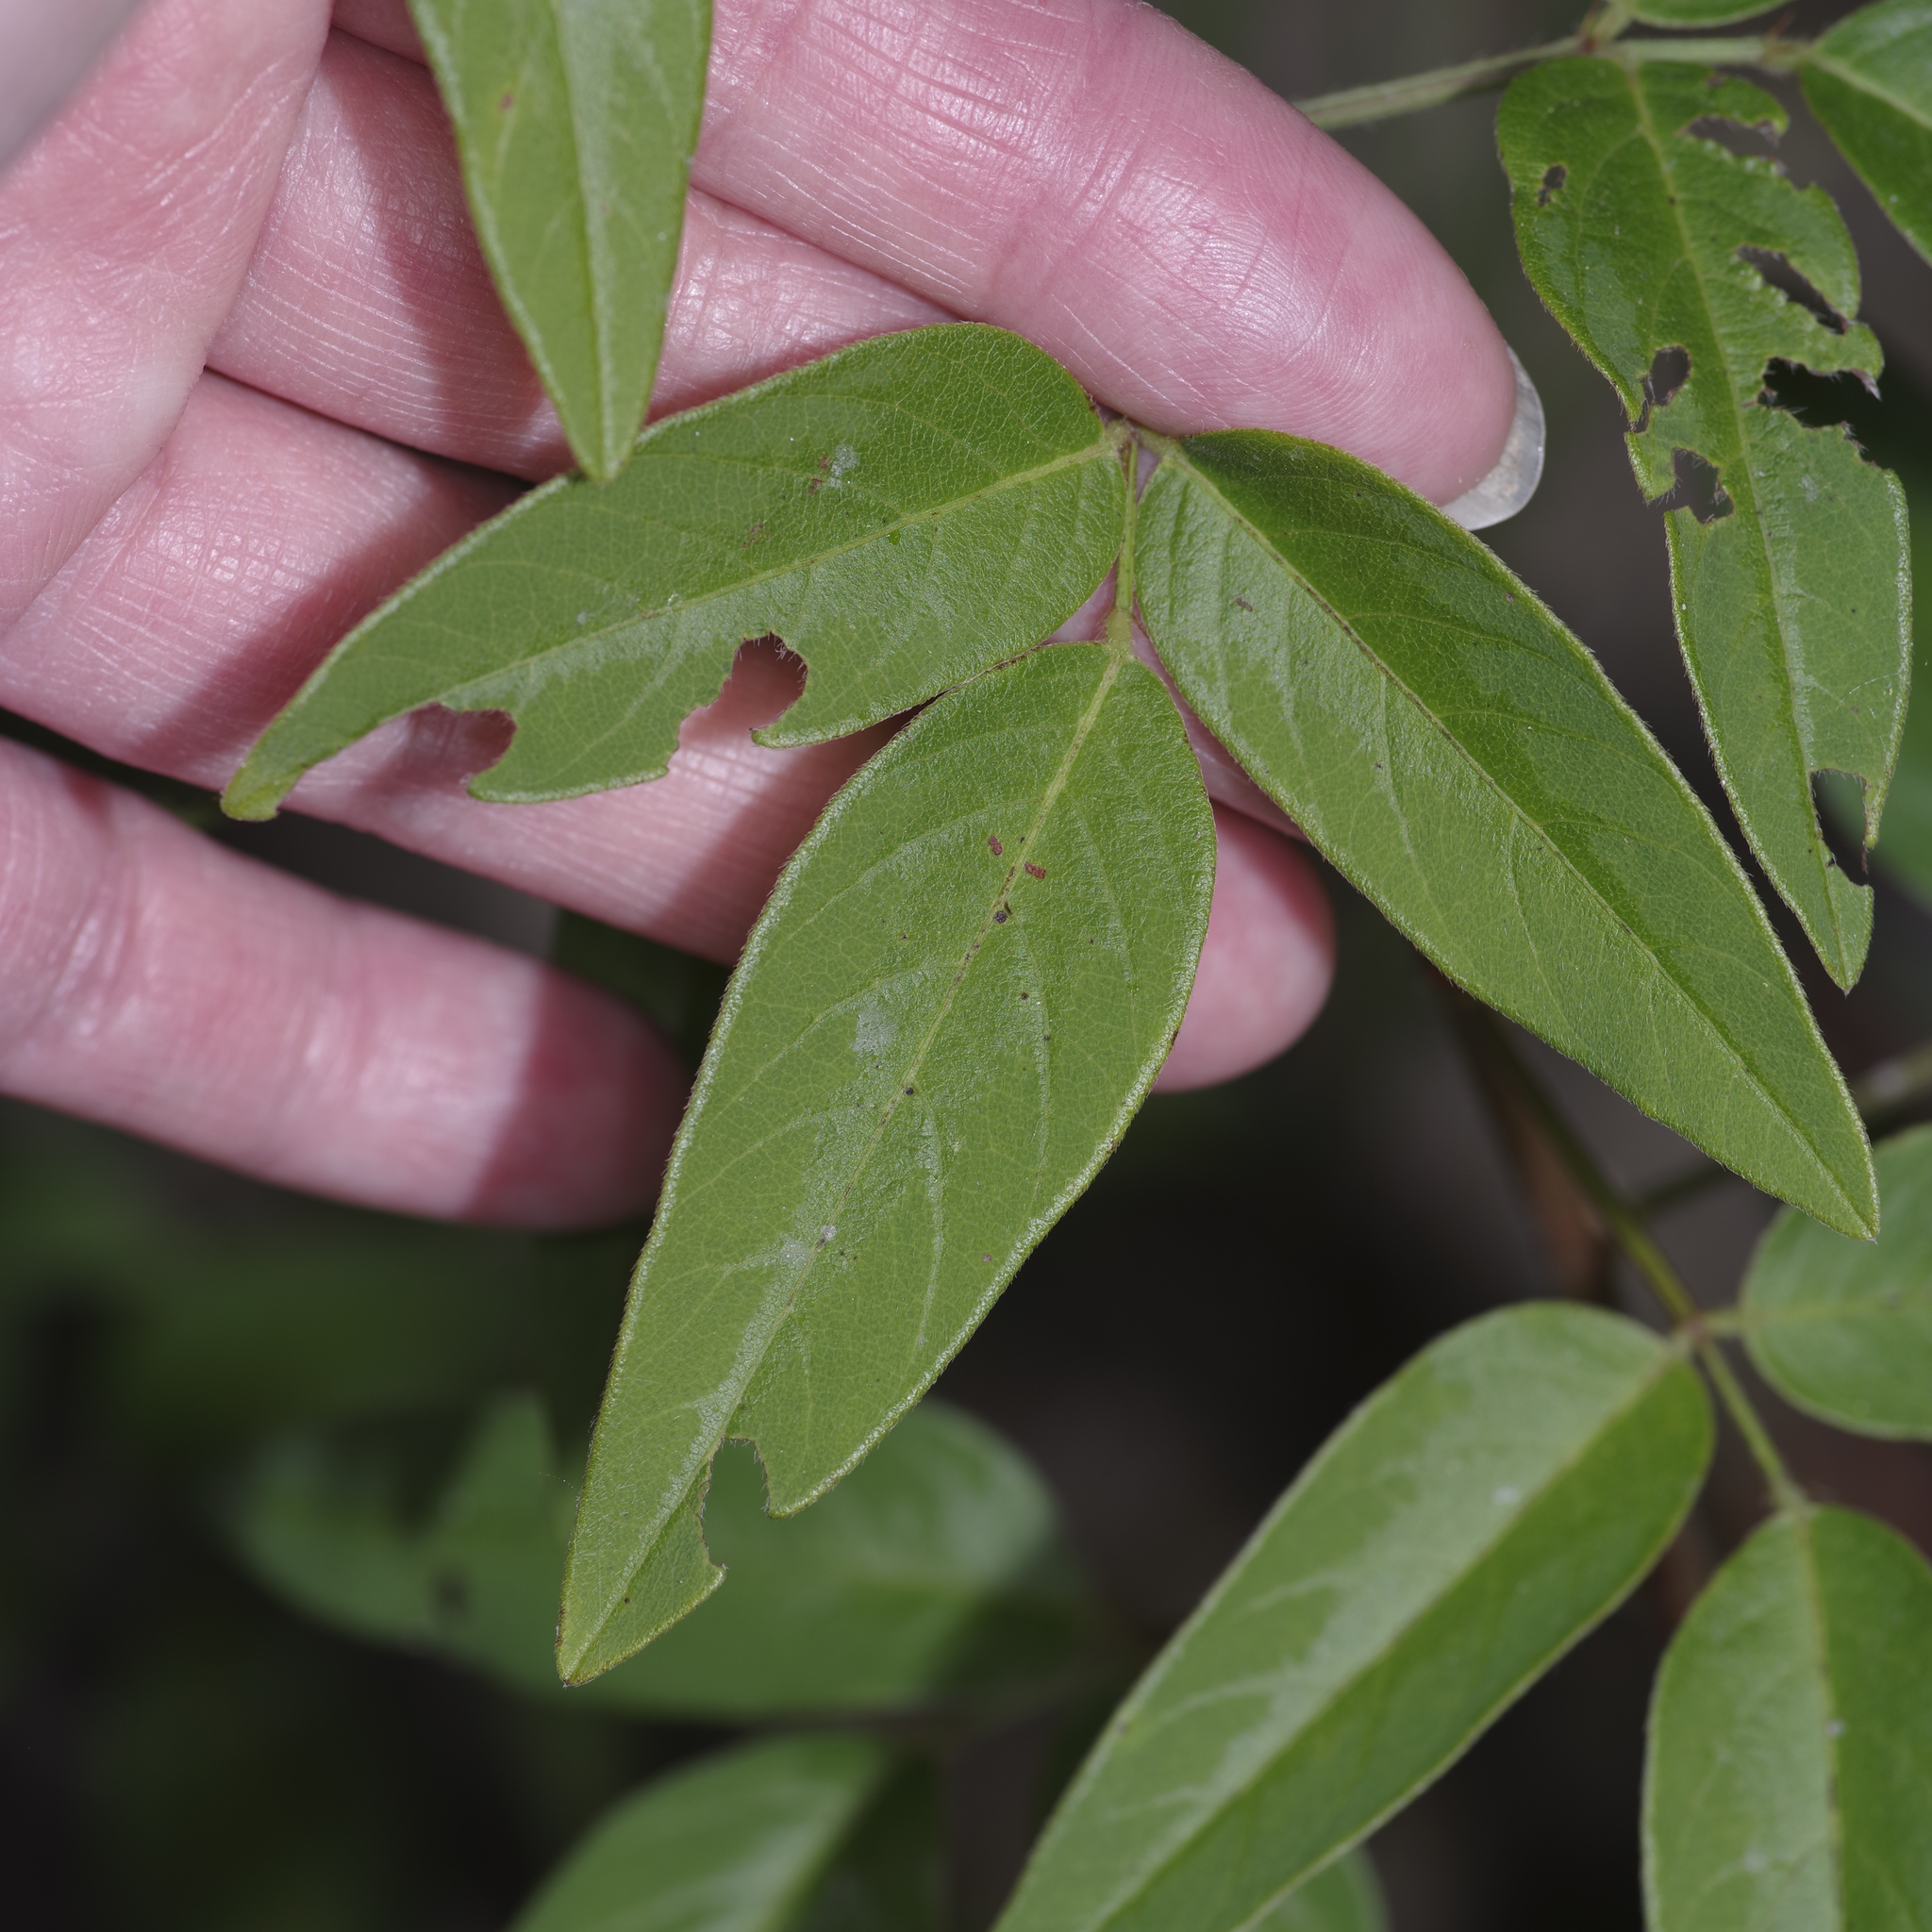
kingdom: Plantae
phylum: Tracheophyta
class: Magnoliopsida
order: Fabales
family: Fabaceae
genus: Desmodium
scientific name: Desmodium paniculatum
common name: Panicled tick-clover
